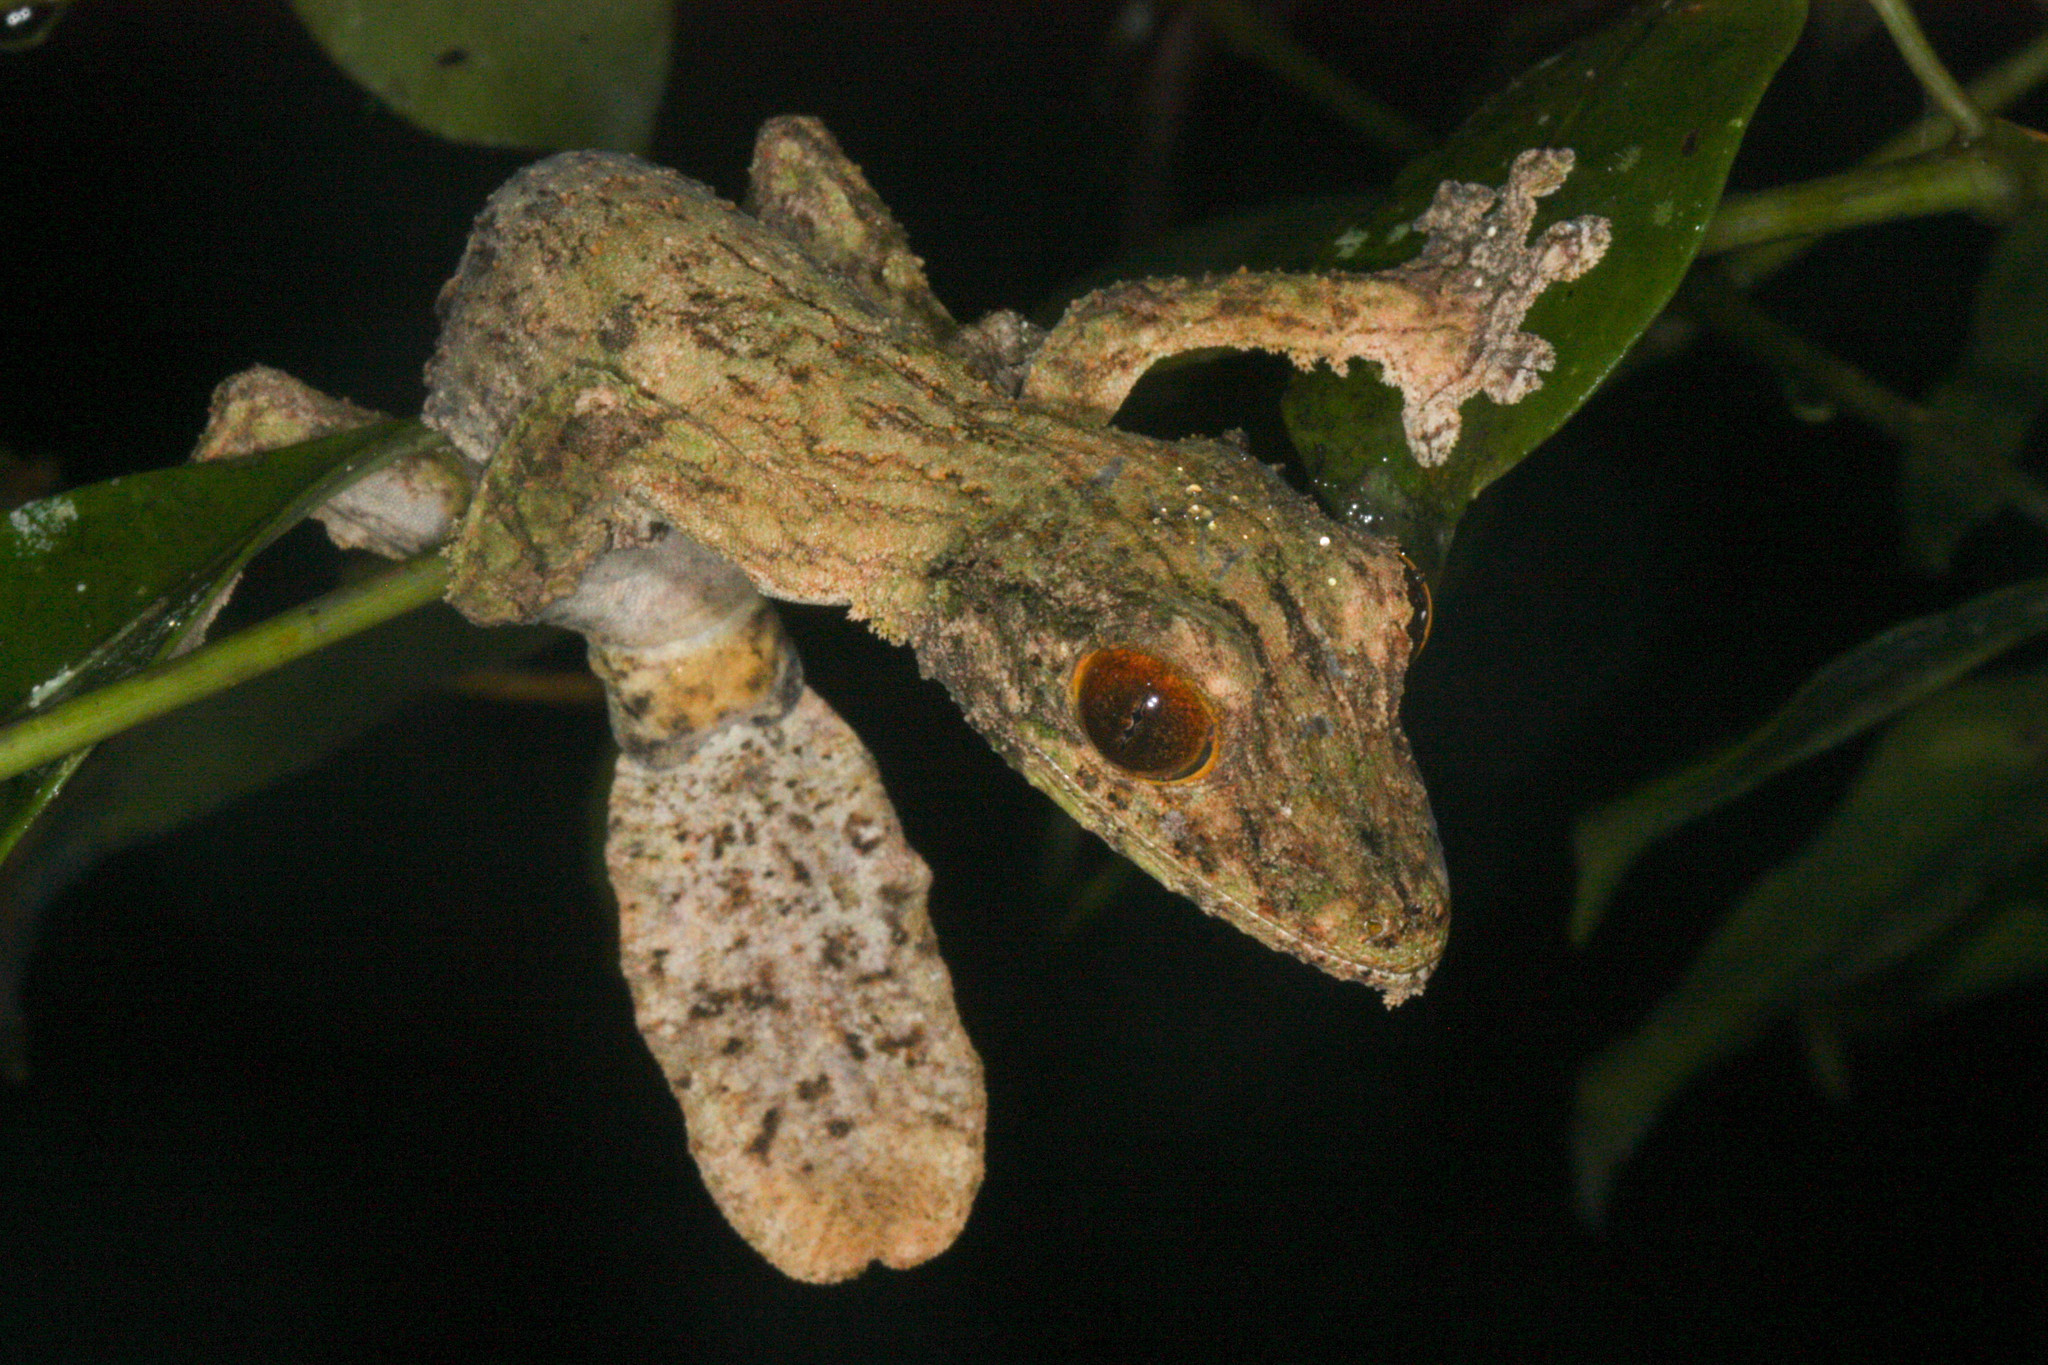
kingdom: Animalia
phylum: Chordata
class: Squamata
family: Gekkonidae
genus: Uroplatus
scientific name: Uroplatus sikorae
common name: Southern flat-tail gecko
